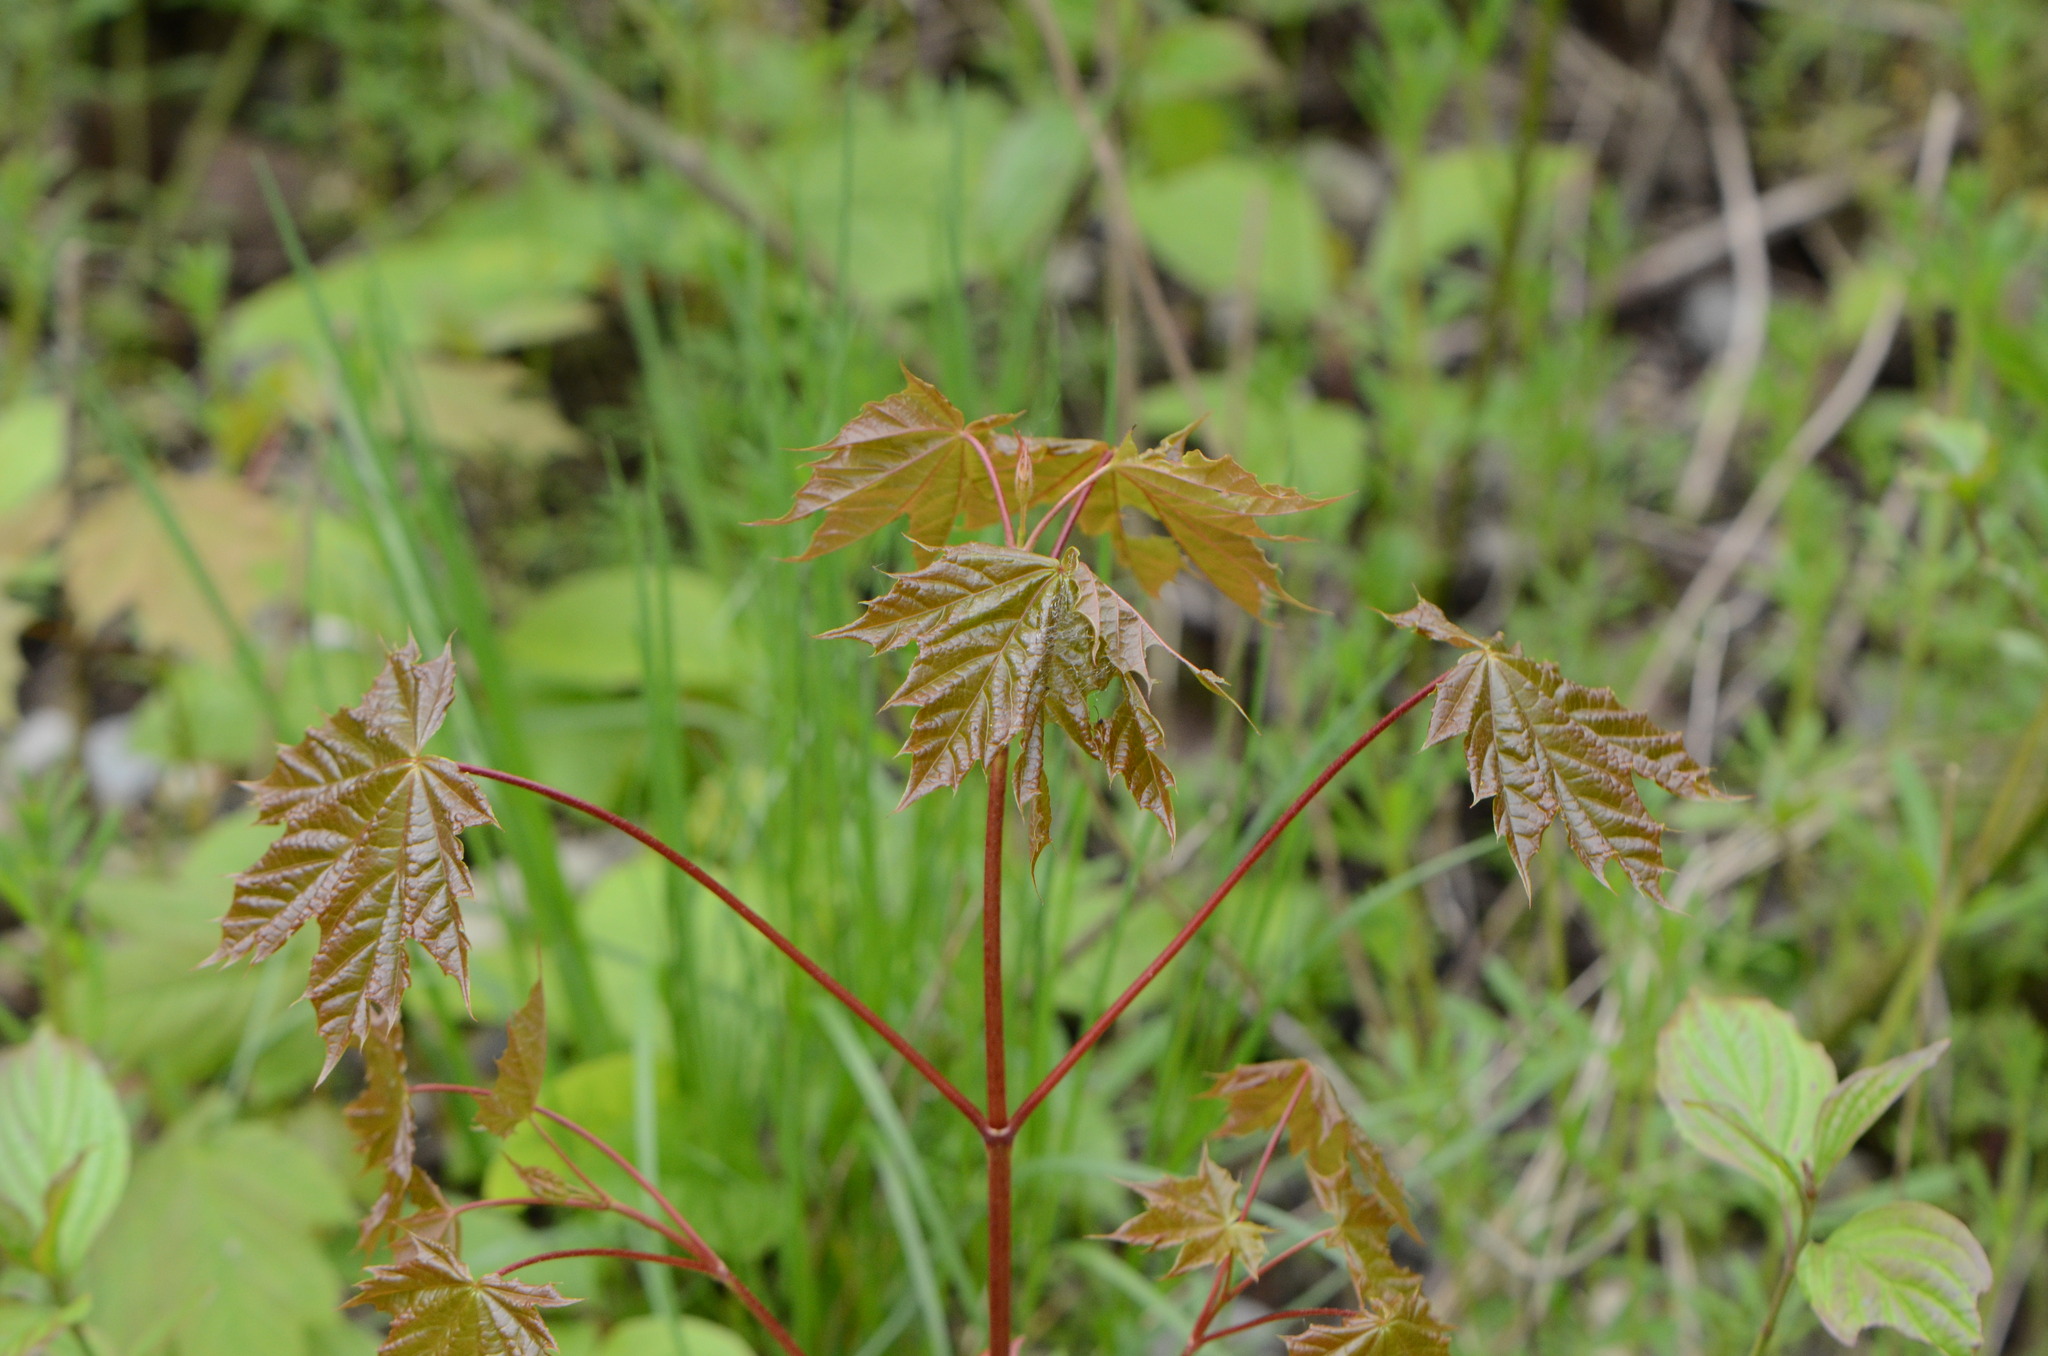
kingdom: Plantae
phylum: Tracheophyta
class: Magnoliopsida
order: Sapindales
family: Sapindaceae
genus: Acer
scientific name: Acer platanoides
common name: Norway maple
